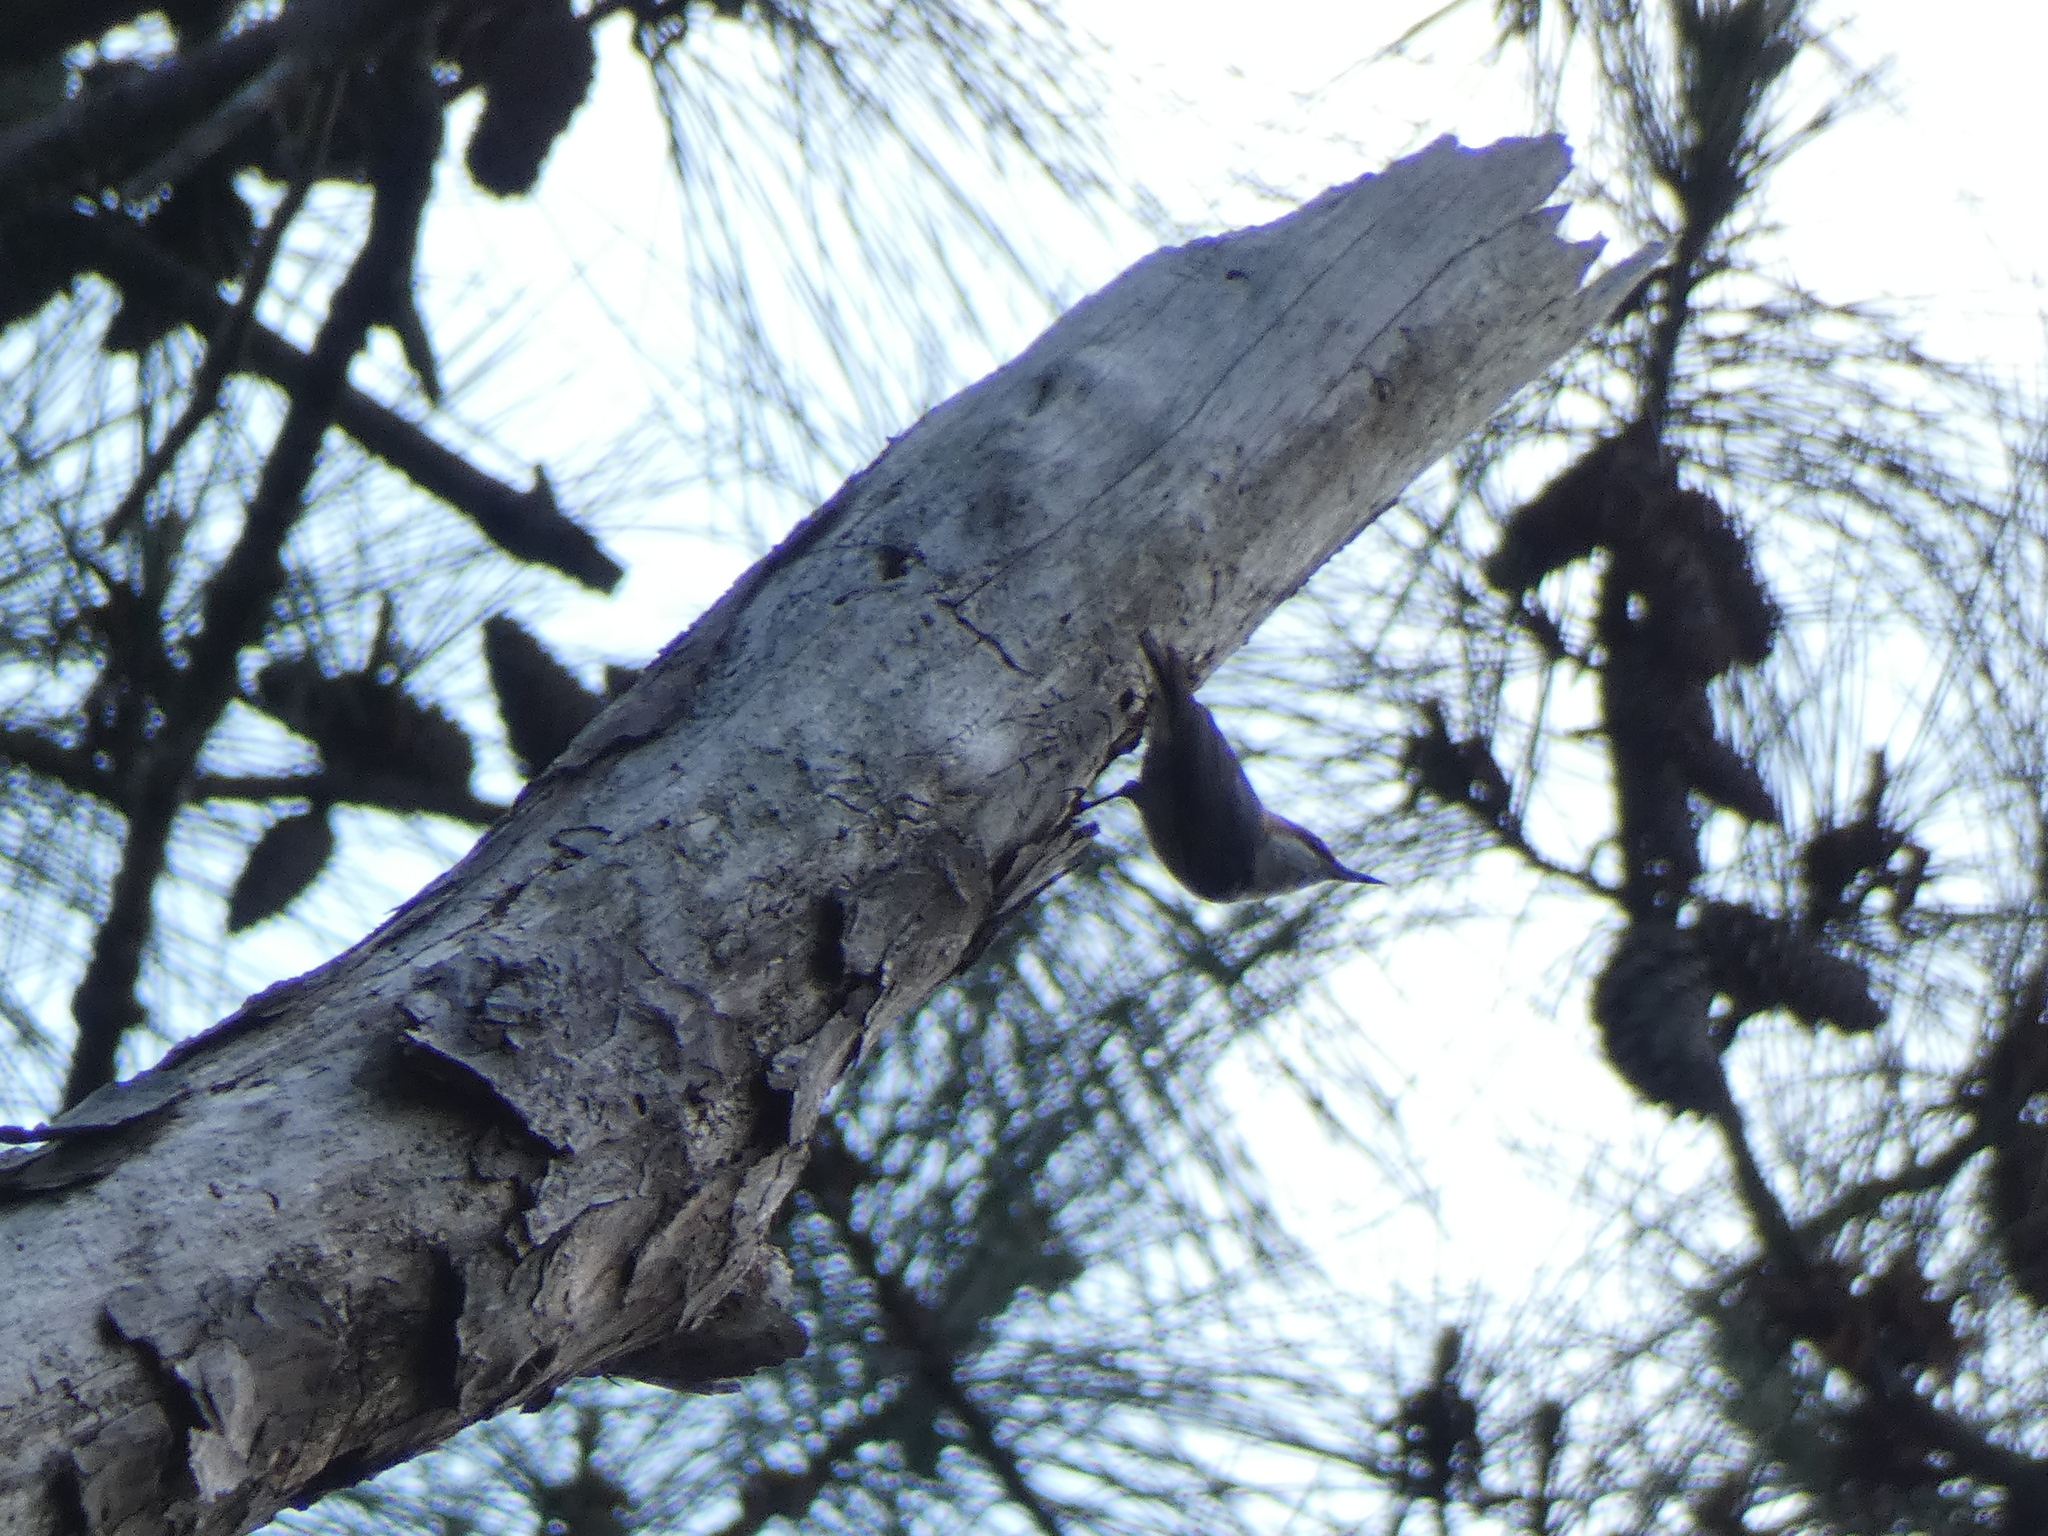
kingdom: Animalia
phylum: Chordata
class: Aves
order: Passeriformes
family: Sittidae
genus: Sitta
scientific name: Sitta pusilla
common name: Brown-headed nuthatch
